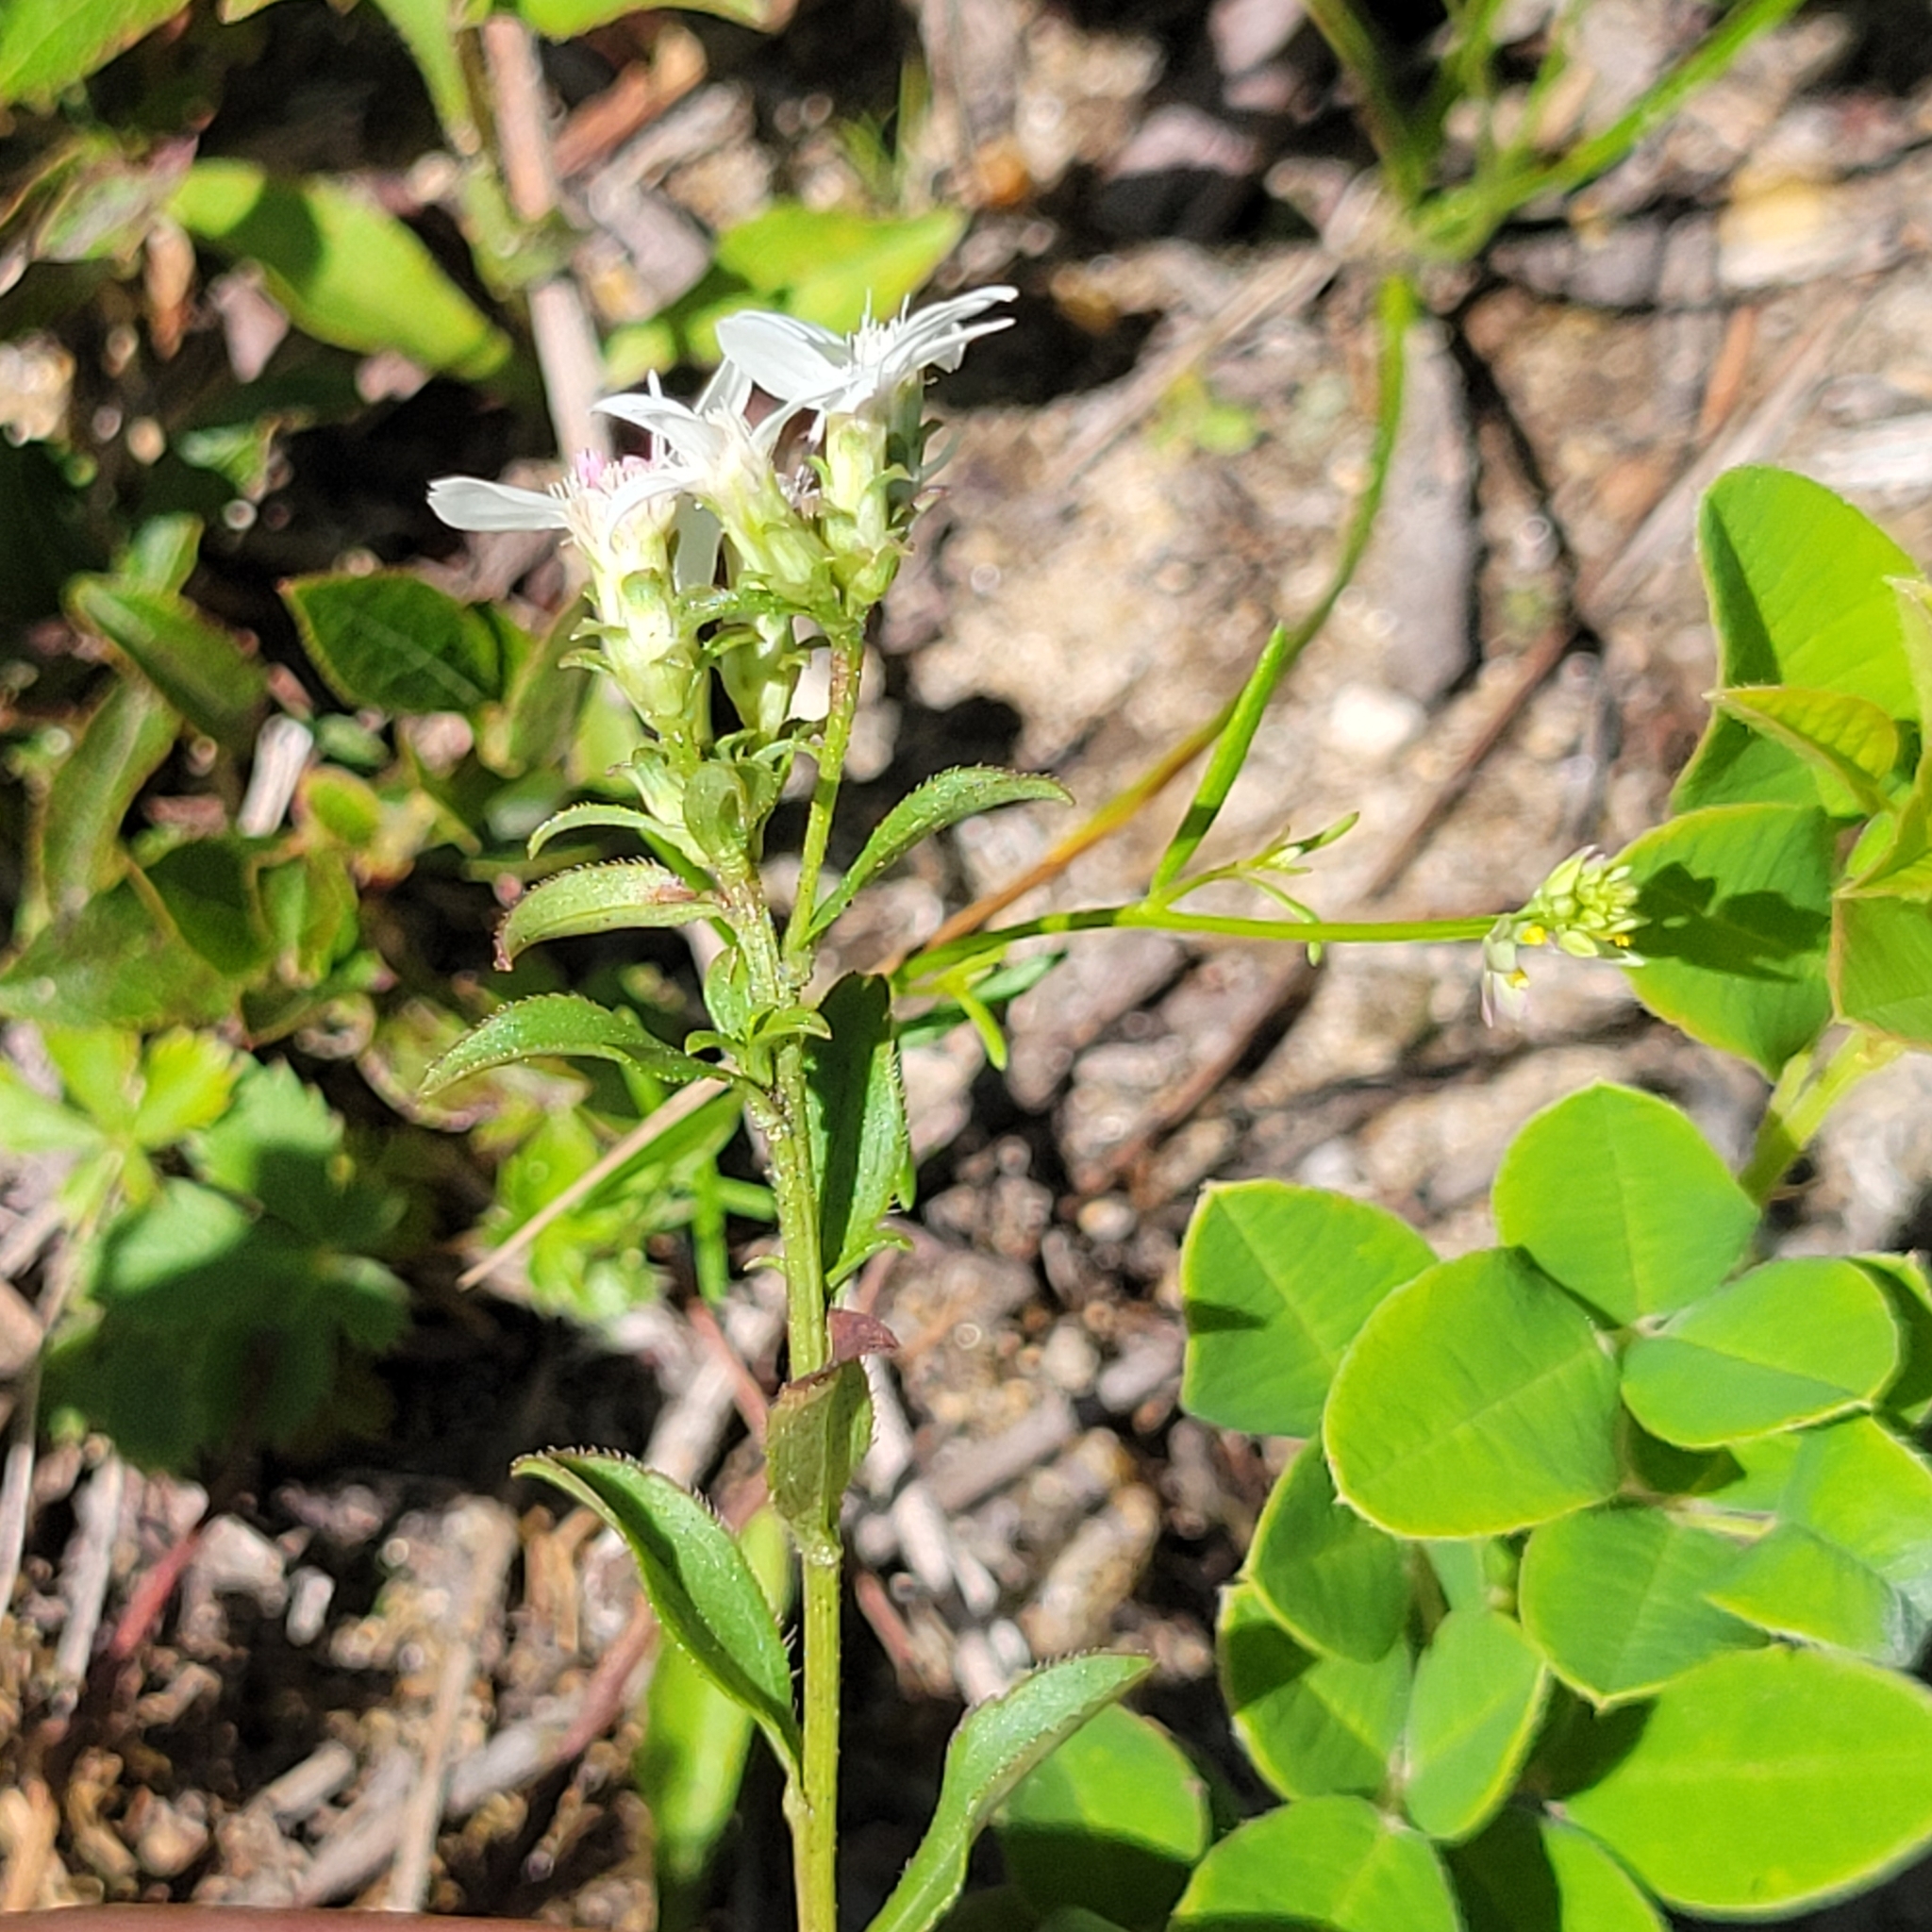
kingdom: Plantae
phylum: Tracheophyta
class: Magnoliopsida
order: Asterales
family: Asteraceae
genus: Sericocarpus
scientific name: Sericocarpus asteroides
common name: Toothed white-top aster
